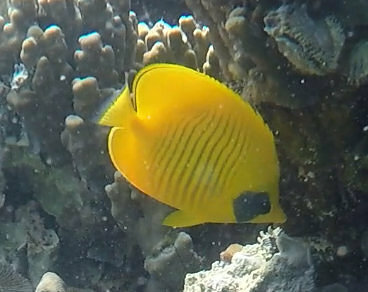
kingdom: Animalia
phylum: Chordata
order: Perciformes
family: Chaetodontidae
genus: Chaetodon
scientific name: Chaetodon semilarvatus
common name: Golden butterflyfish
